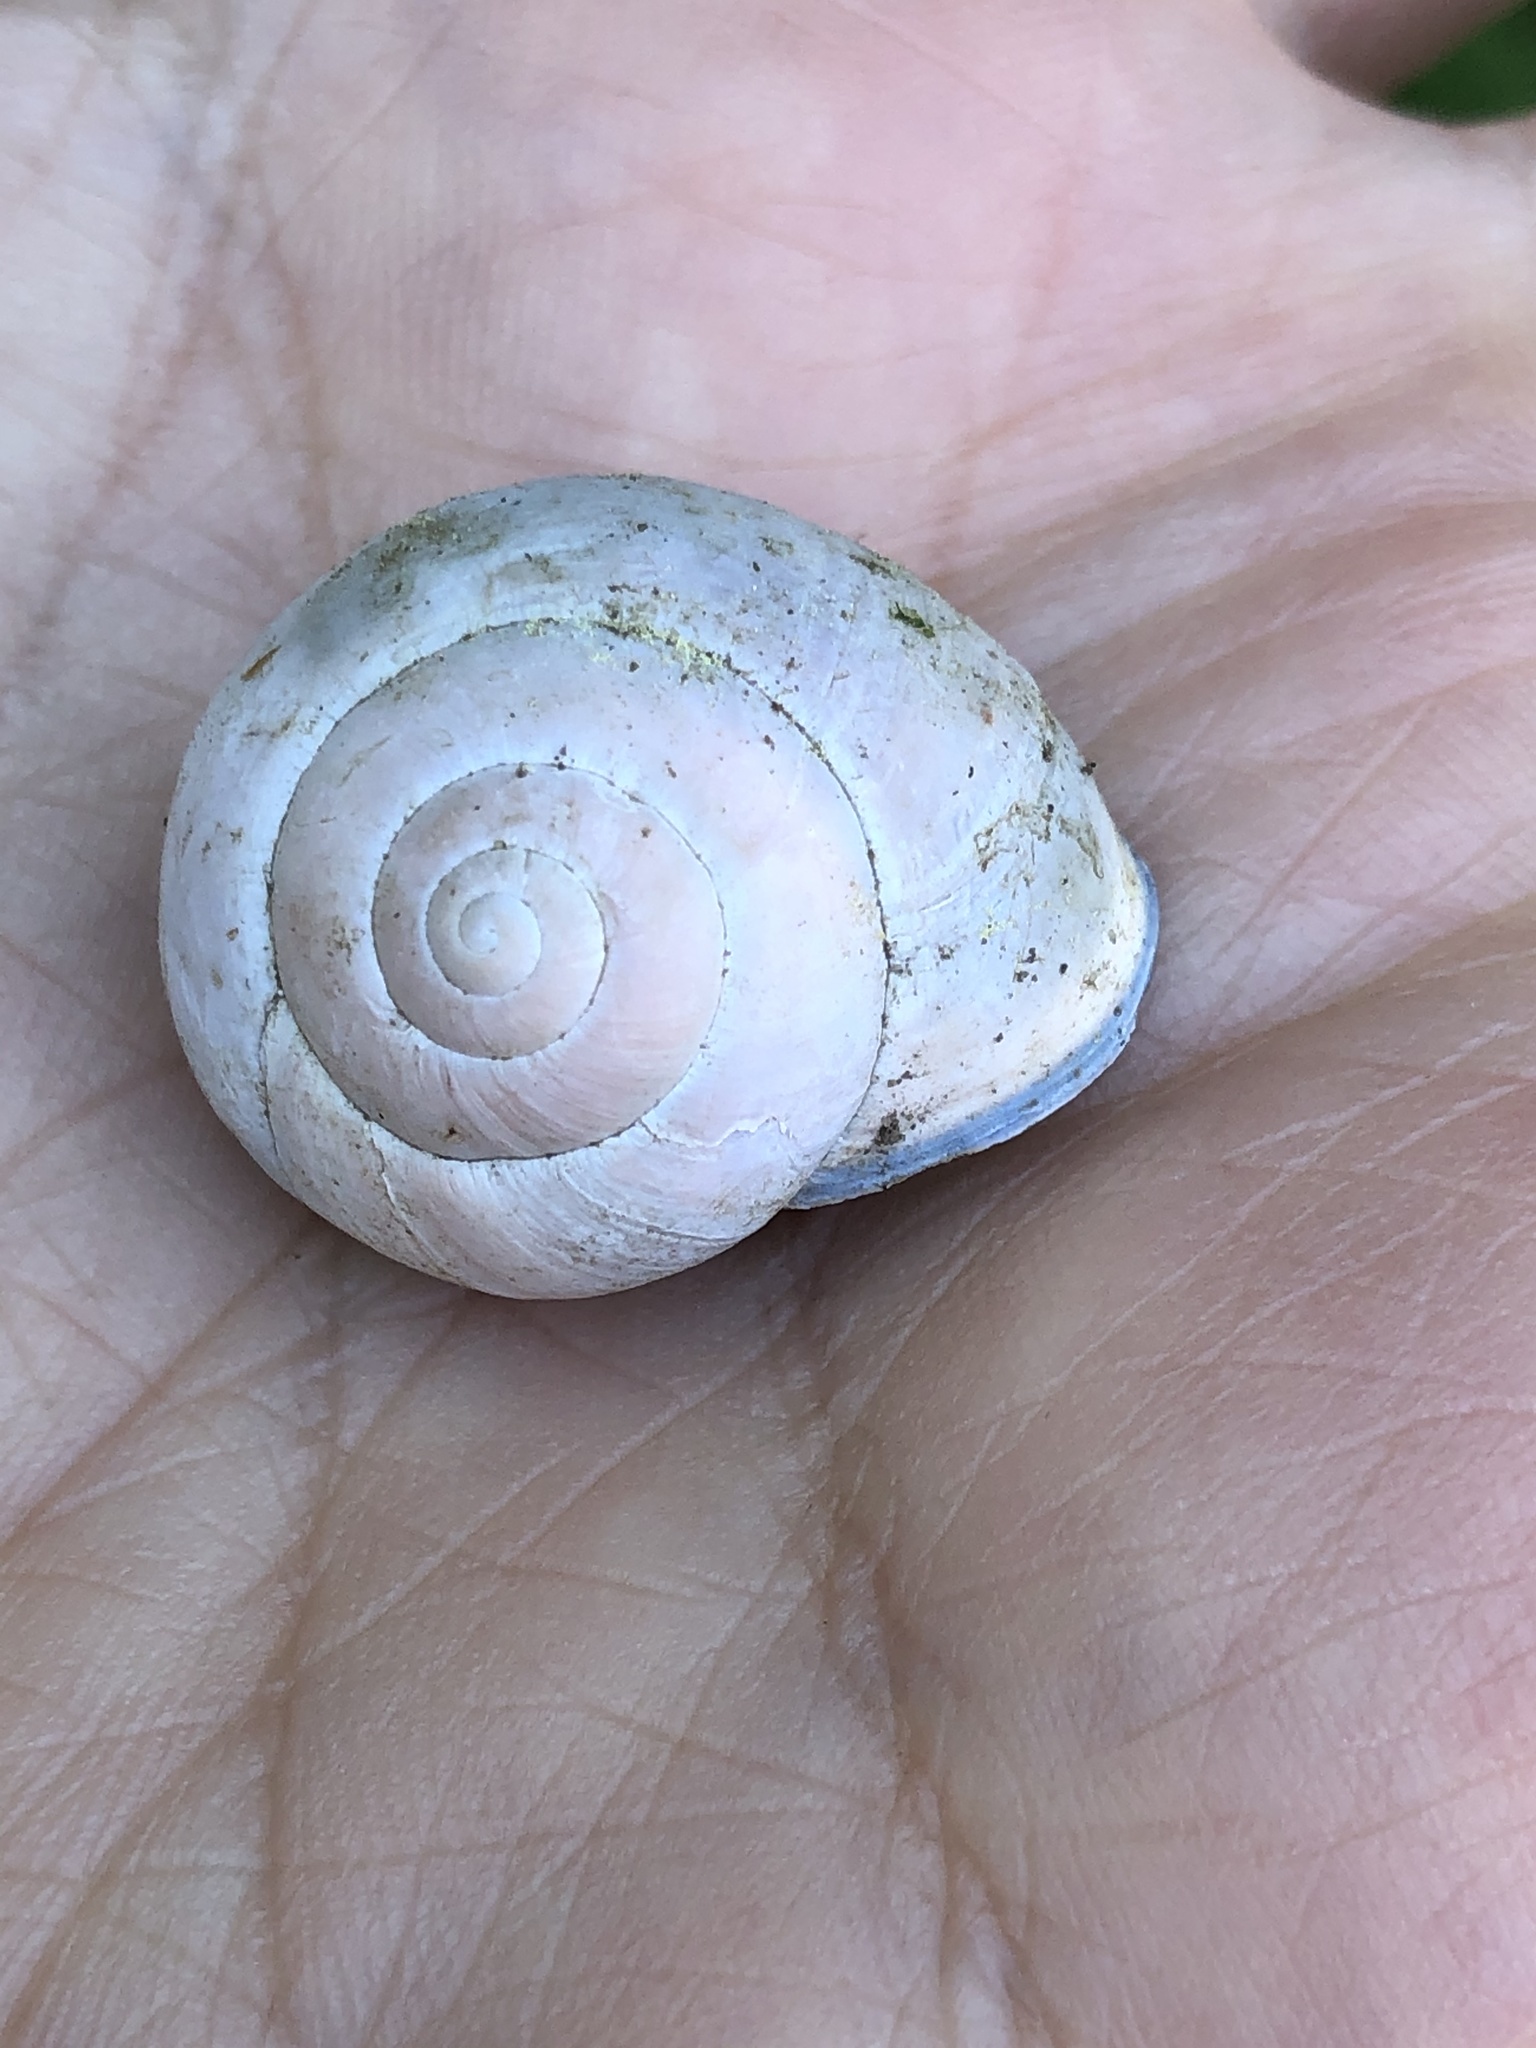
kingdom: Animalia
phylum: Mollusca
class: Gastropoda
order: Stylommatophora
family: Helicidae
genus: Cepaea
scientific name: Cepaea nemoralis
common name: Grovesnail
